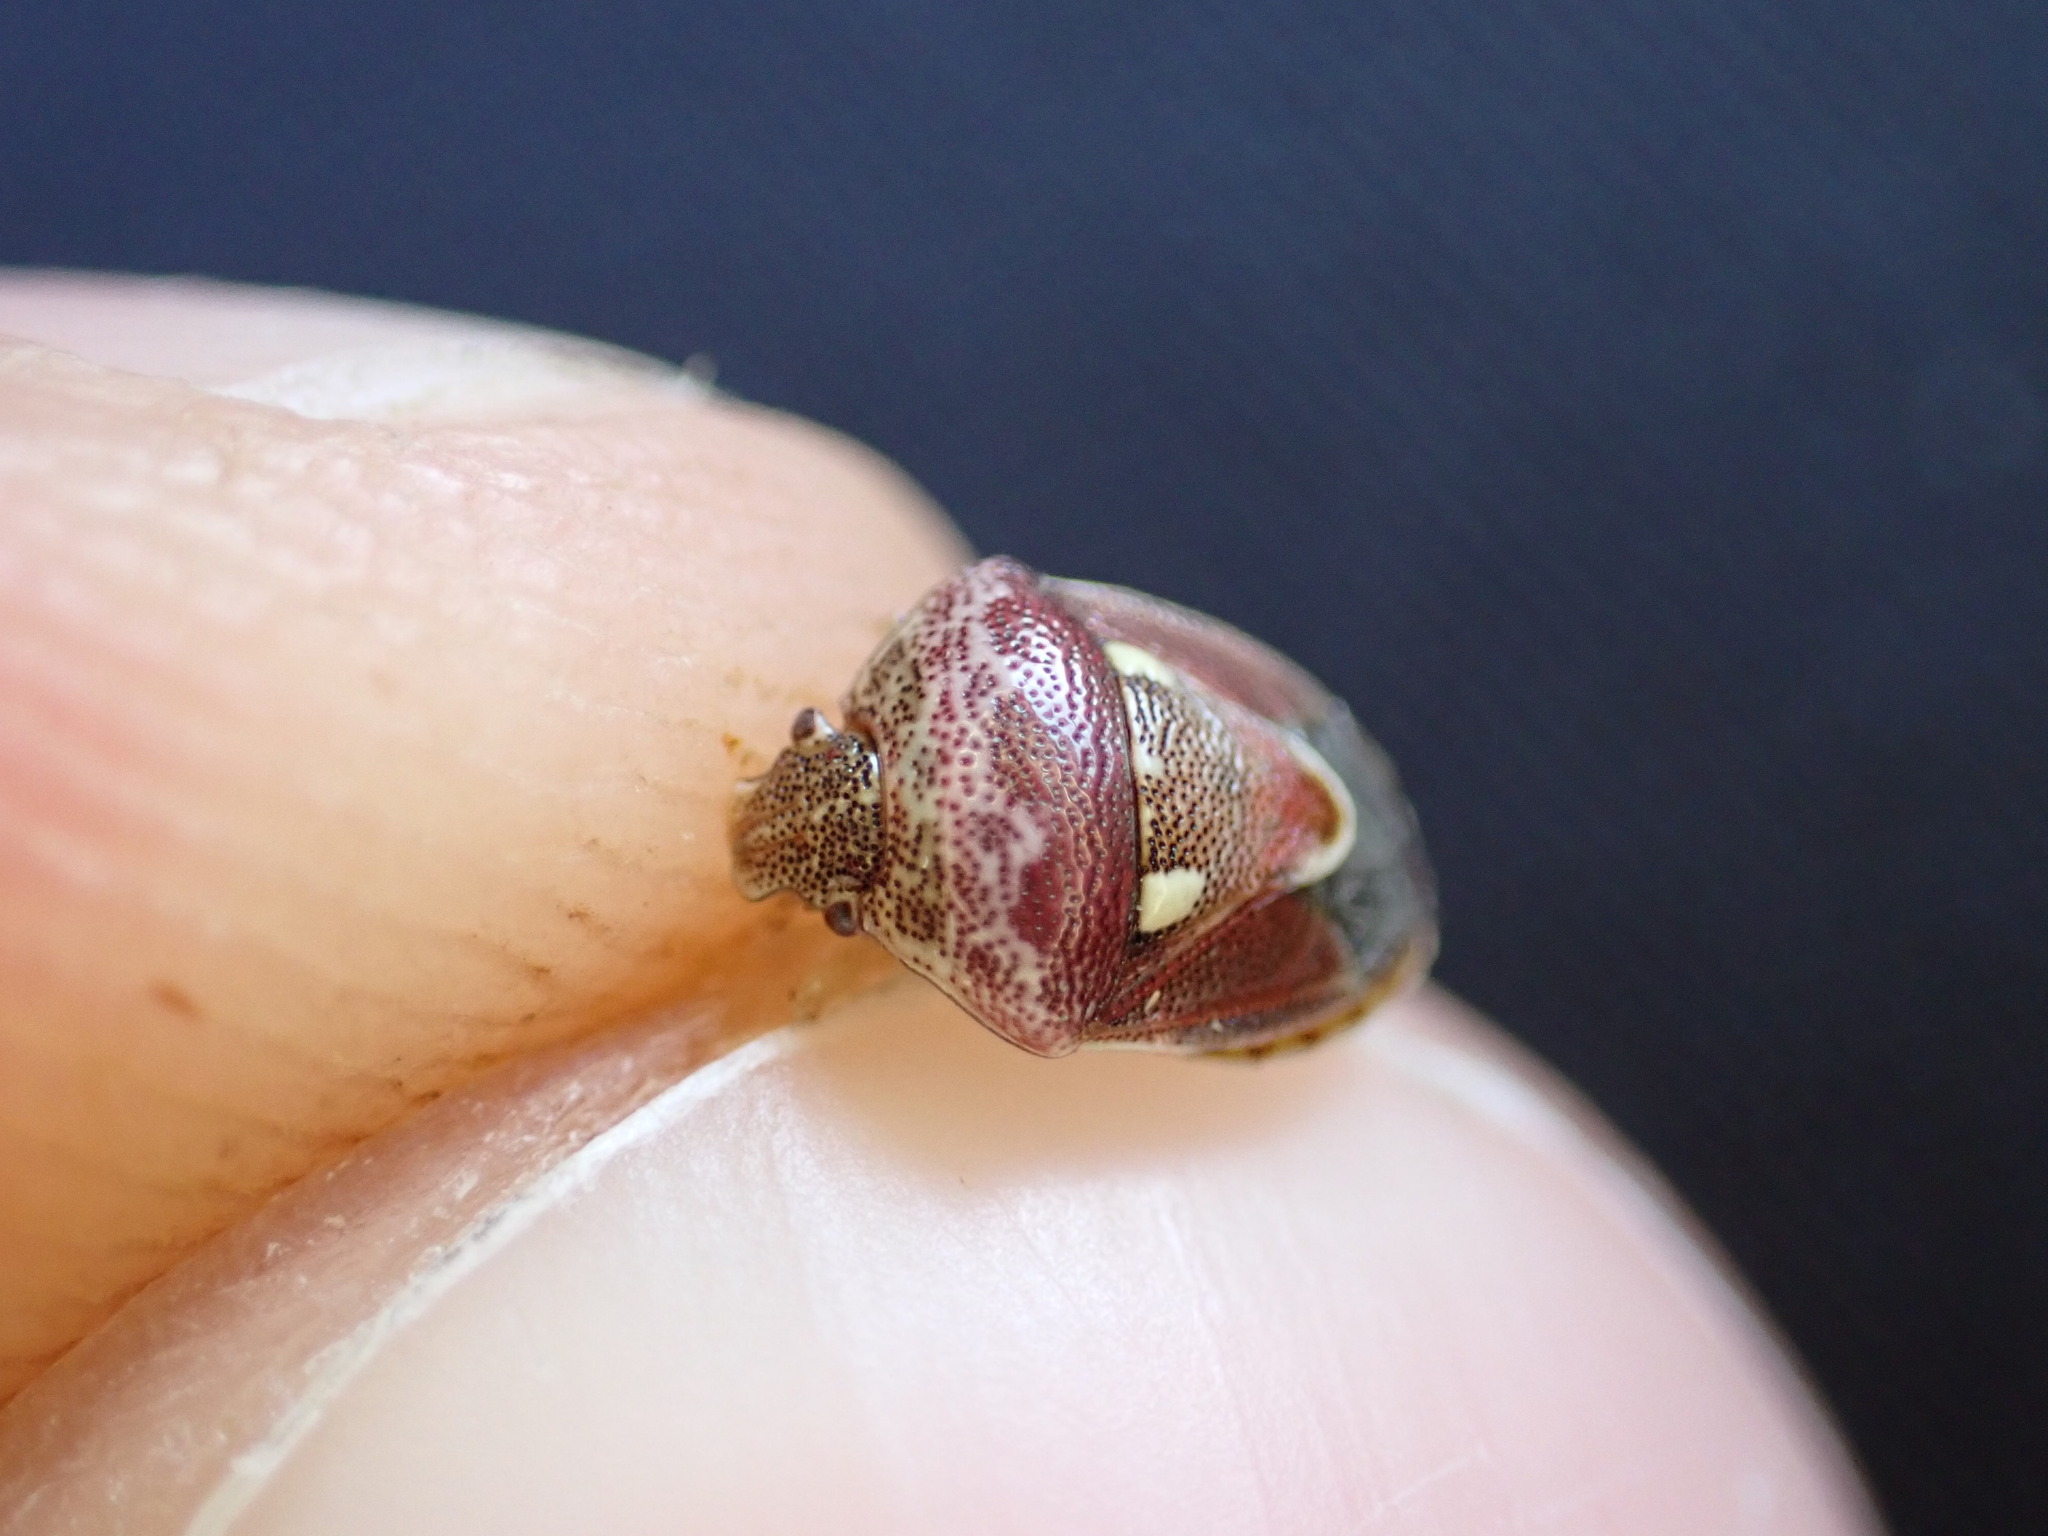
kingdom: Animalia
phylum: Arthropoda
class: Insecta
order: Hemiptera
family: Pentatomidae
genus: Stagonomus
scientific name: Stagonomus amoenus
